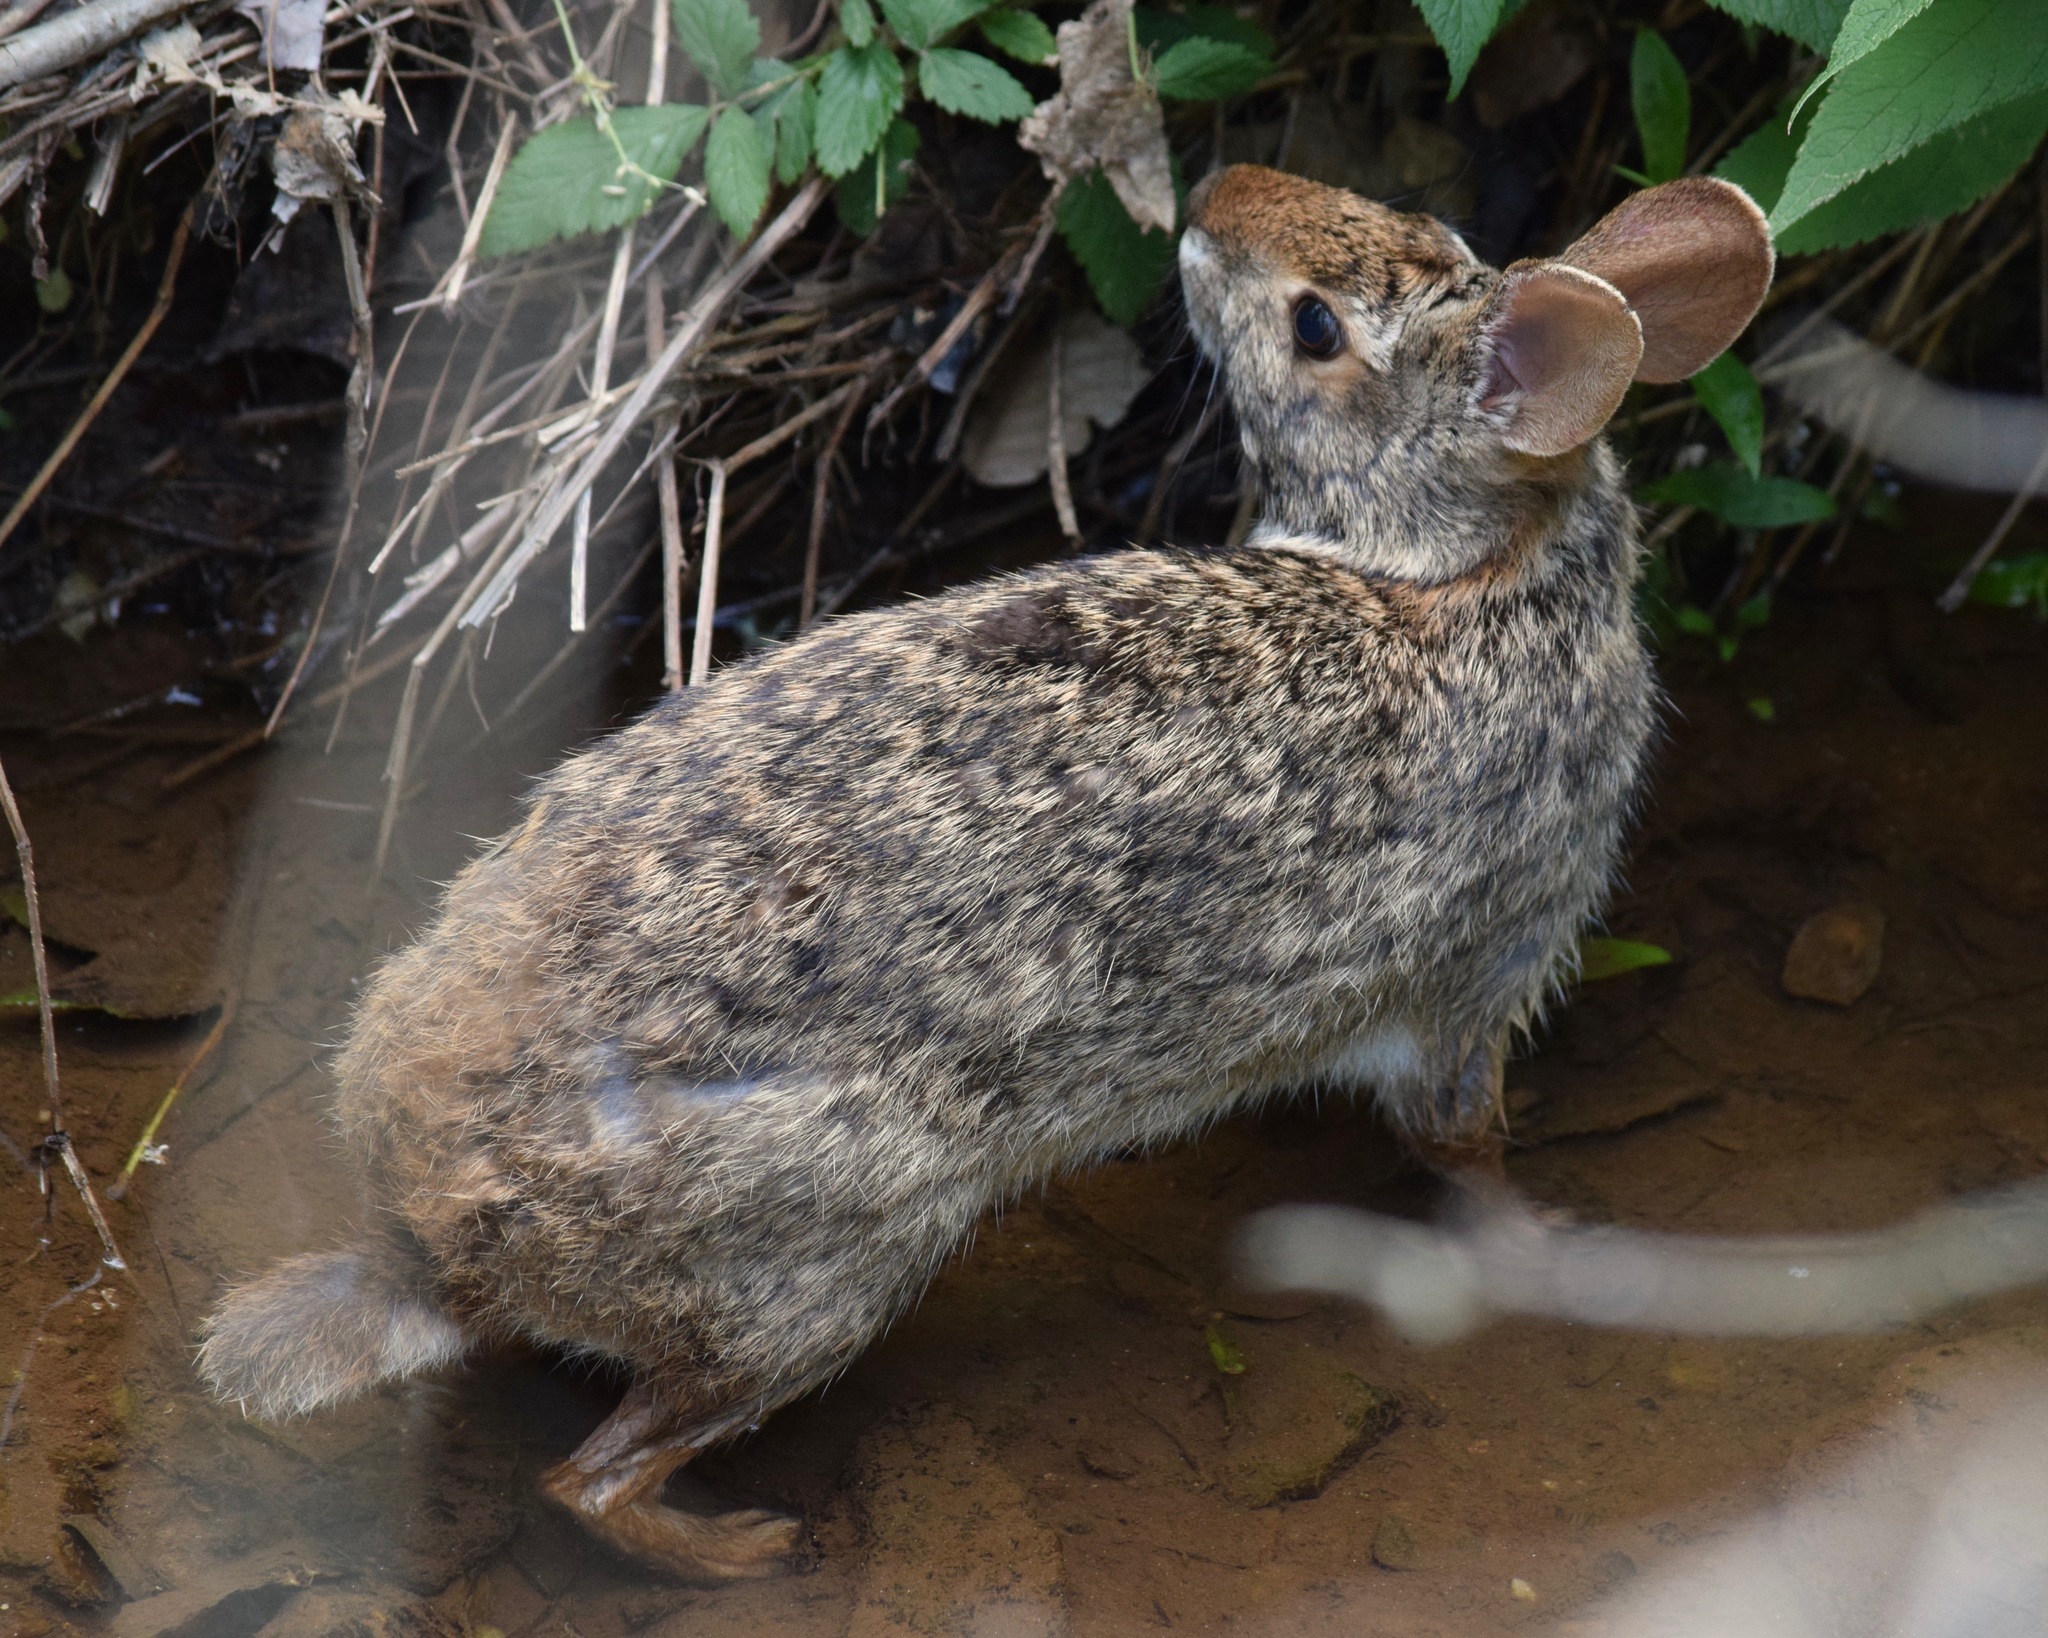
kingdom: Animalia
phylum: Chordata
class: Mammalia
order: Lagomorpha
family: Leporidae
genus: Sylvilagus
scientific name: Sylvilagus aquaticus
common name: Swamp rabbit
